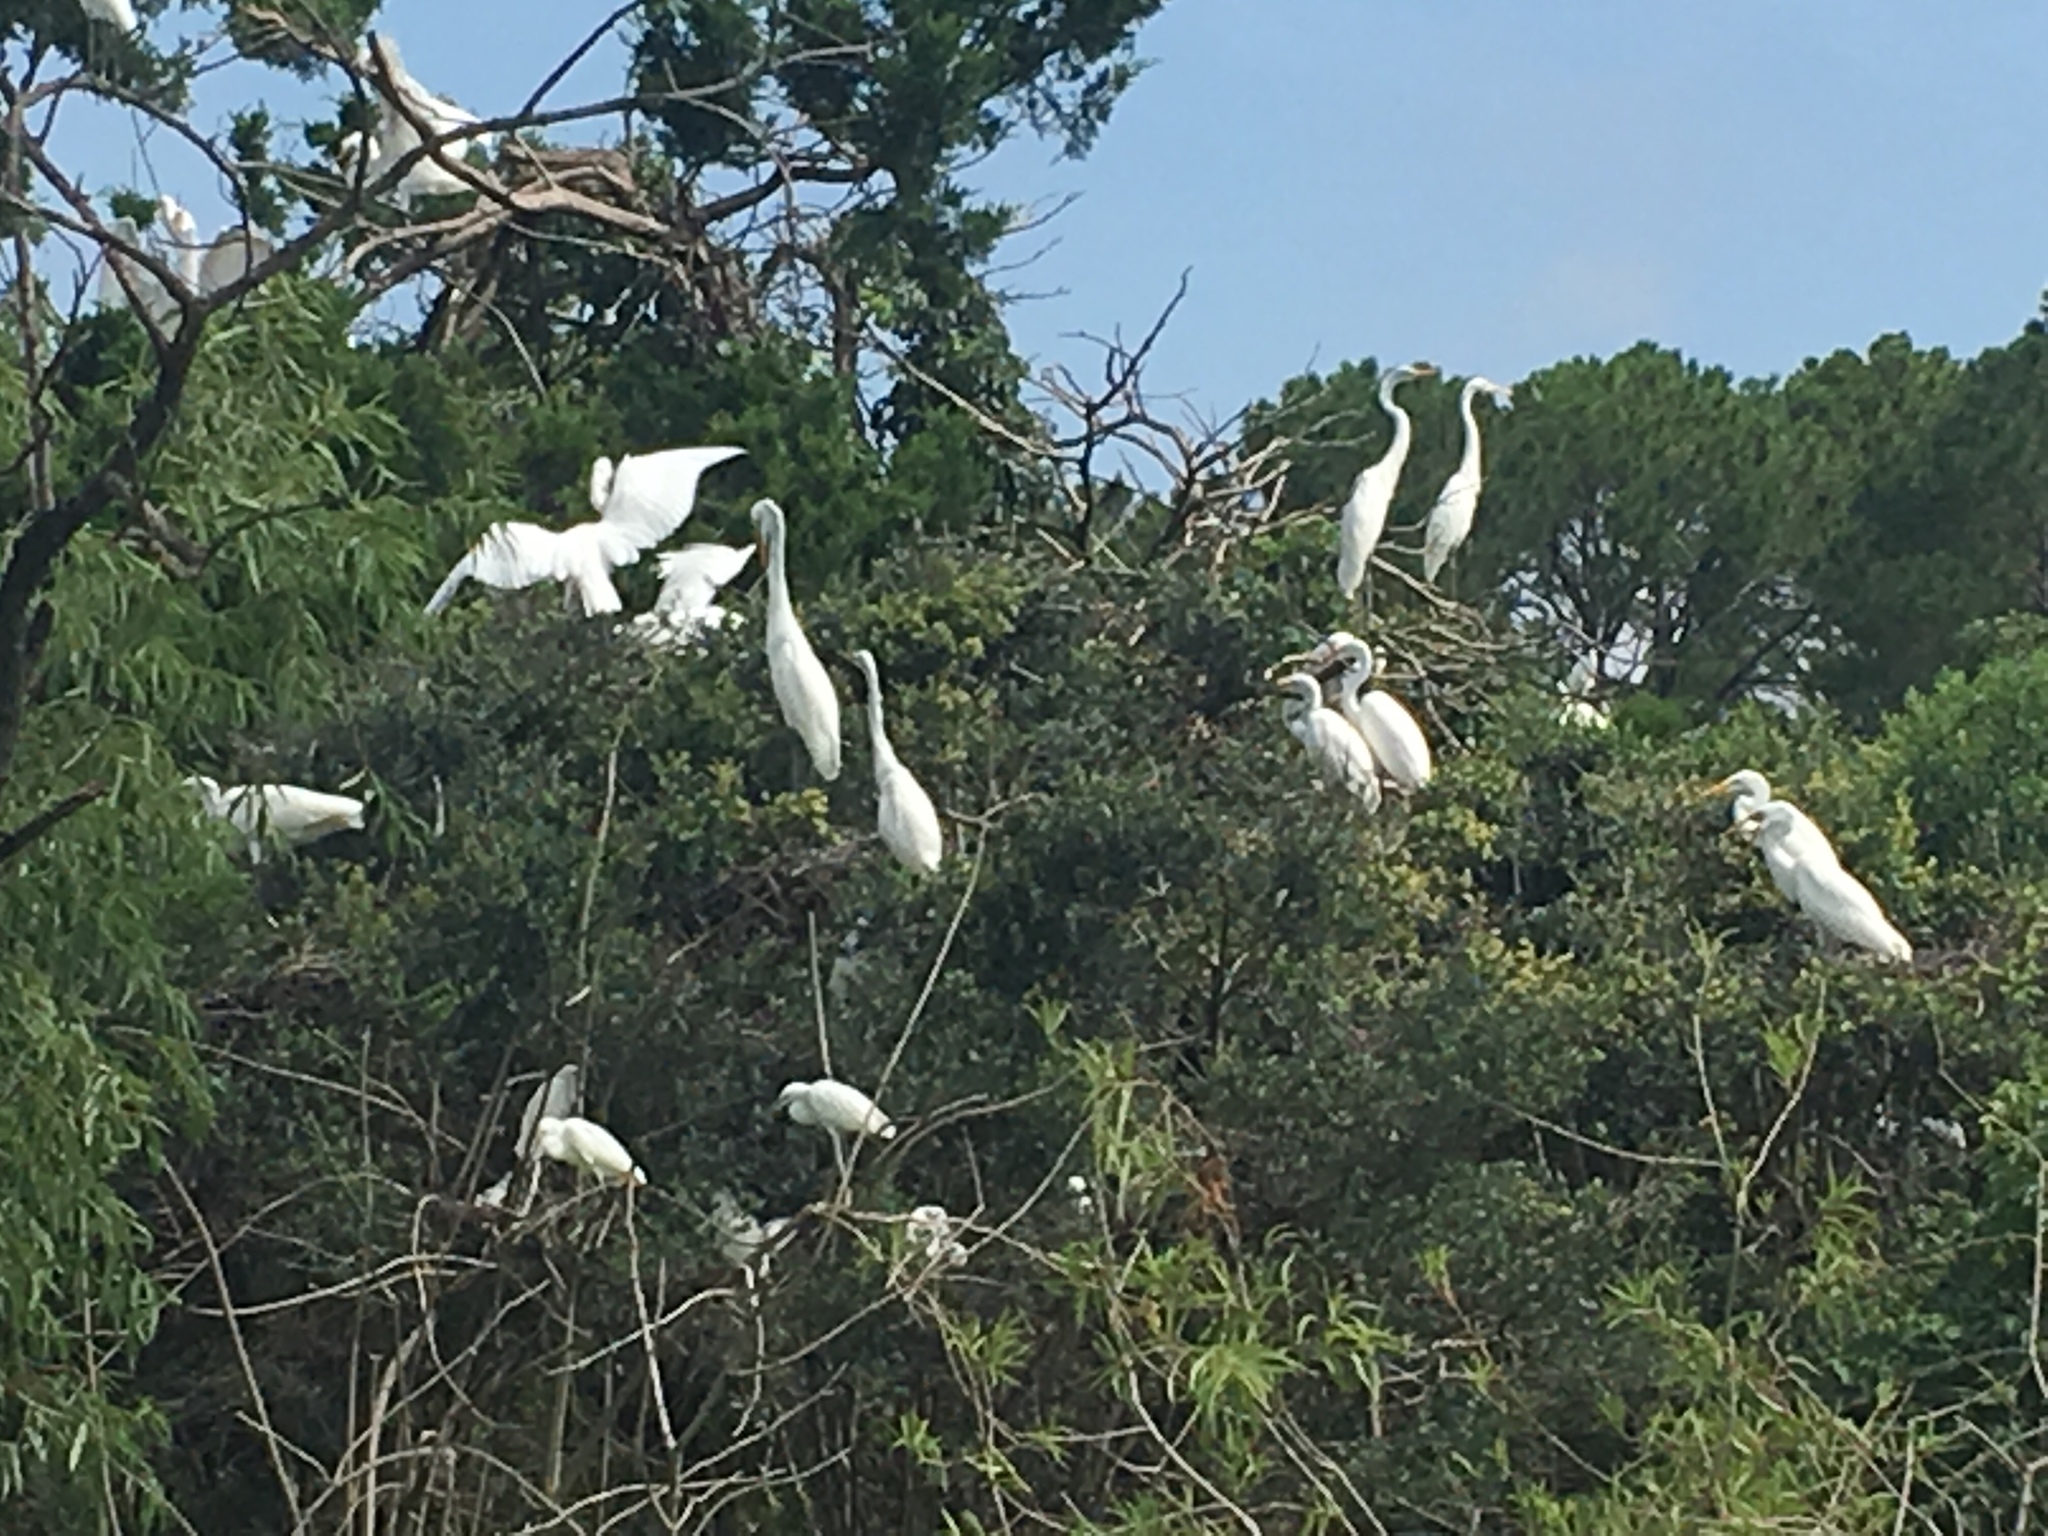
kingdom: Animalia
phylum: Chordata
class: Aves
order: Pelecaniformes
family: Ardeidae
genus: Ardea
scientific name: Ardea alba
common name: Great egret
